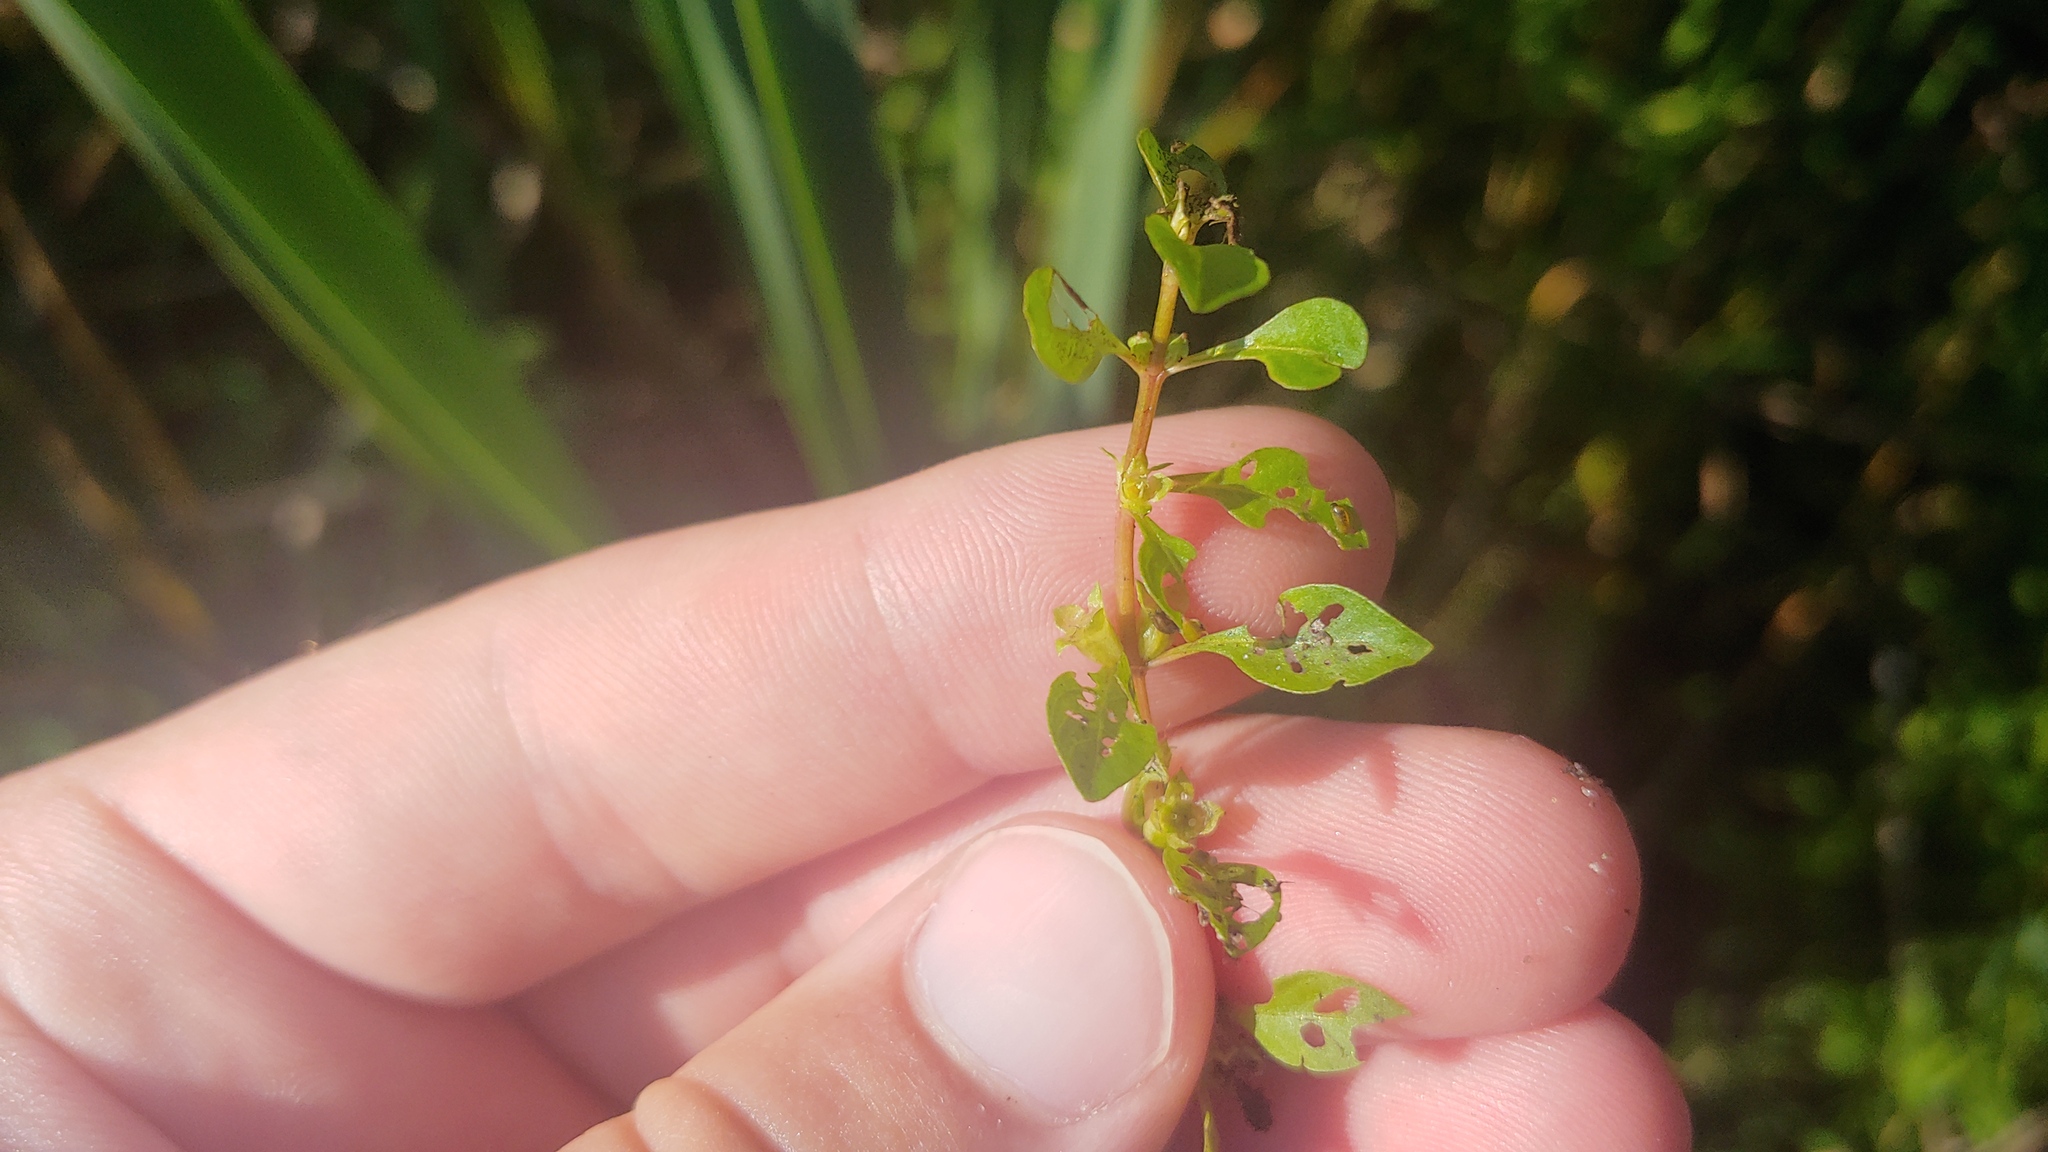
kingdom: Plantae
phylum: Tracheophyta
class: Magnoliopsida
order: Myrtales
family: Onagraceae
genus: Ludwigia
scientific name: Ludwigia palustris
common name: Hampshire-purslane
